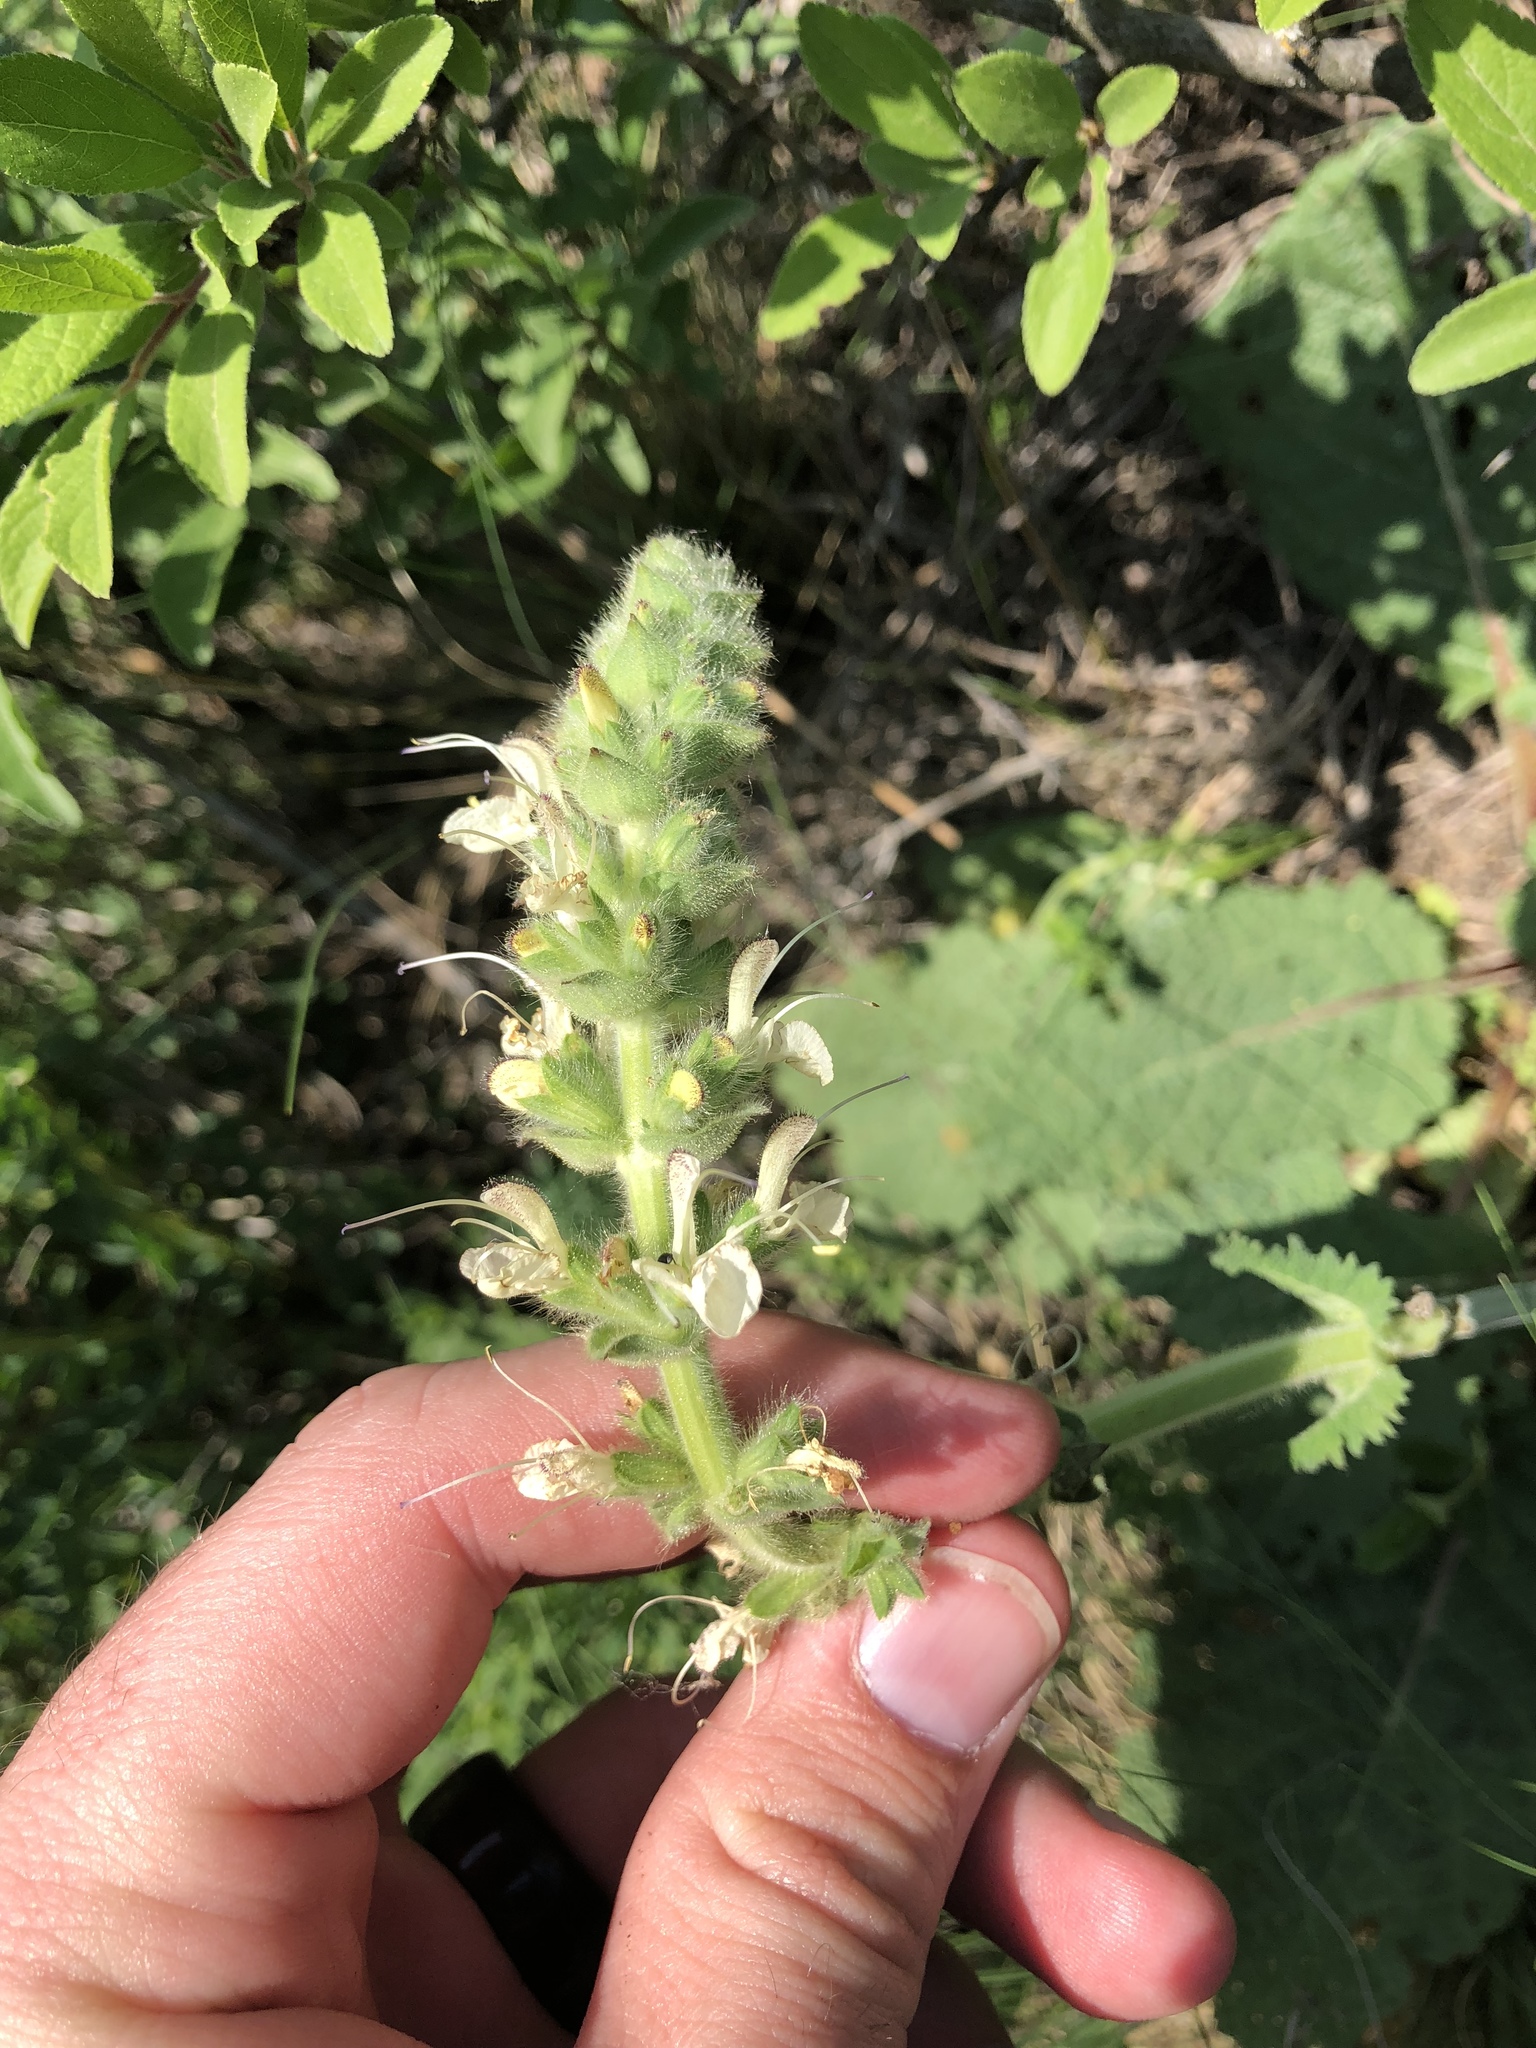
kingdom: Plantae
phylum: Tracheophyta
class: Magnoliopsida
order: Lamiales
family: Lamiaceae
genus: Salvia
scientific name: Salvia austriaca
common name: Austrian sage
